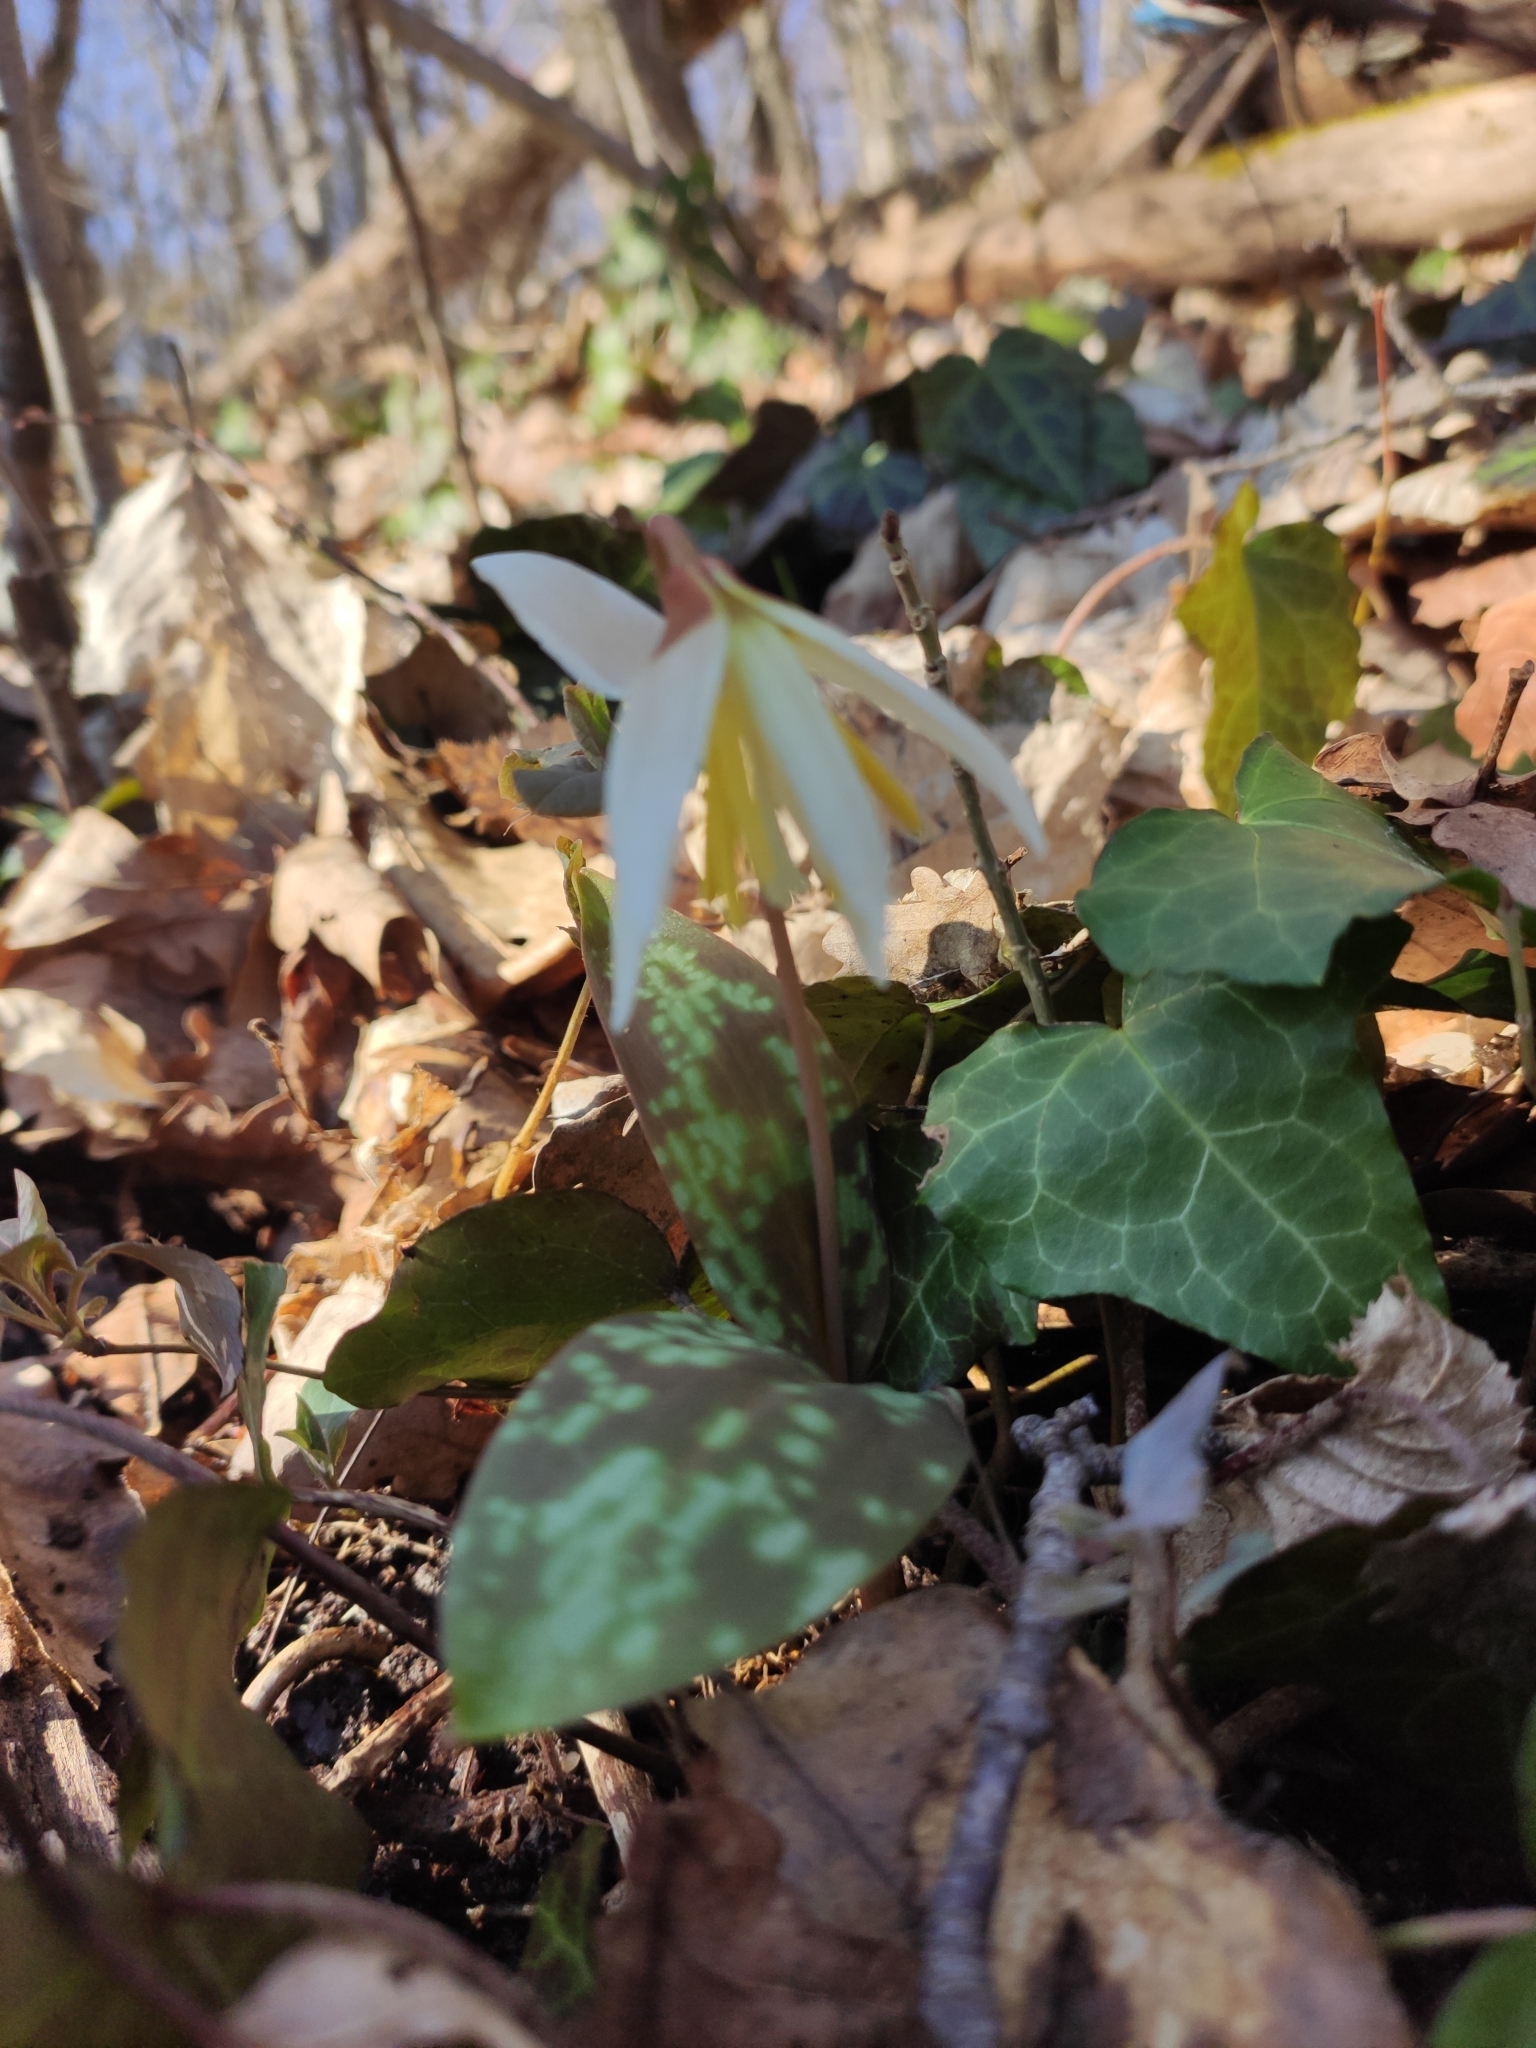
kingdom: Plantae
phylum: Tracheophyta
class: Liliopsida
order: Liliales
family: Liliaceae
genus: Erythronium
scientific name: Erythronium caucasicum
